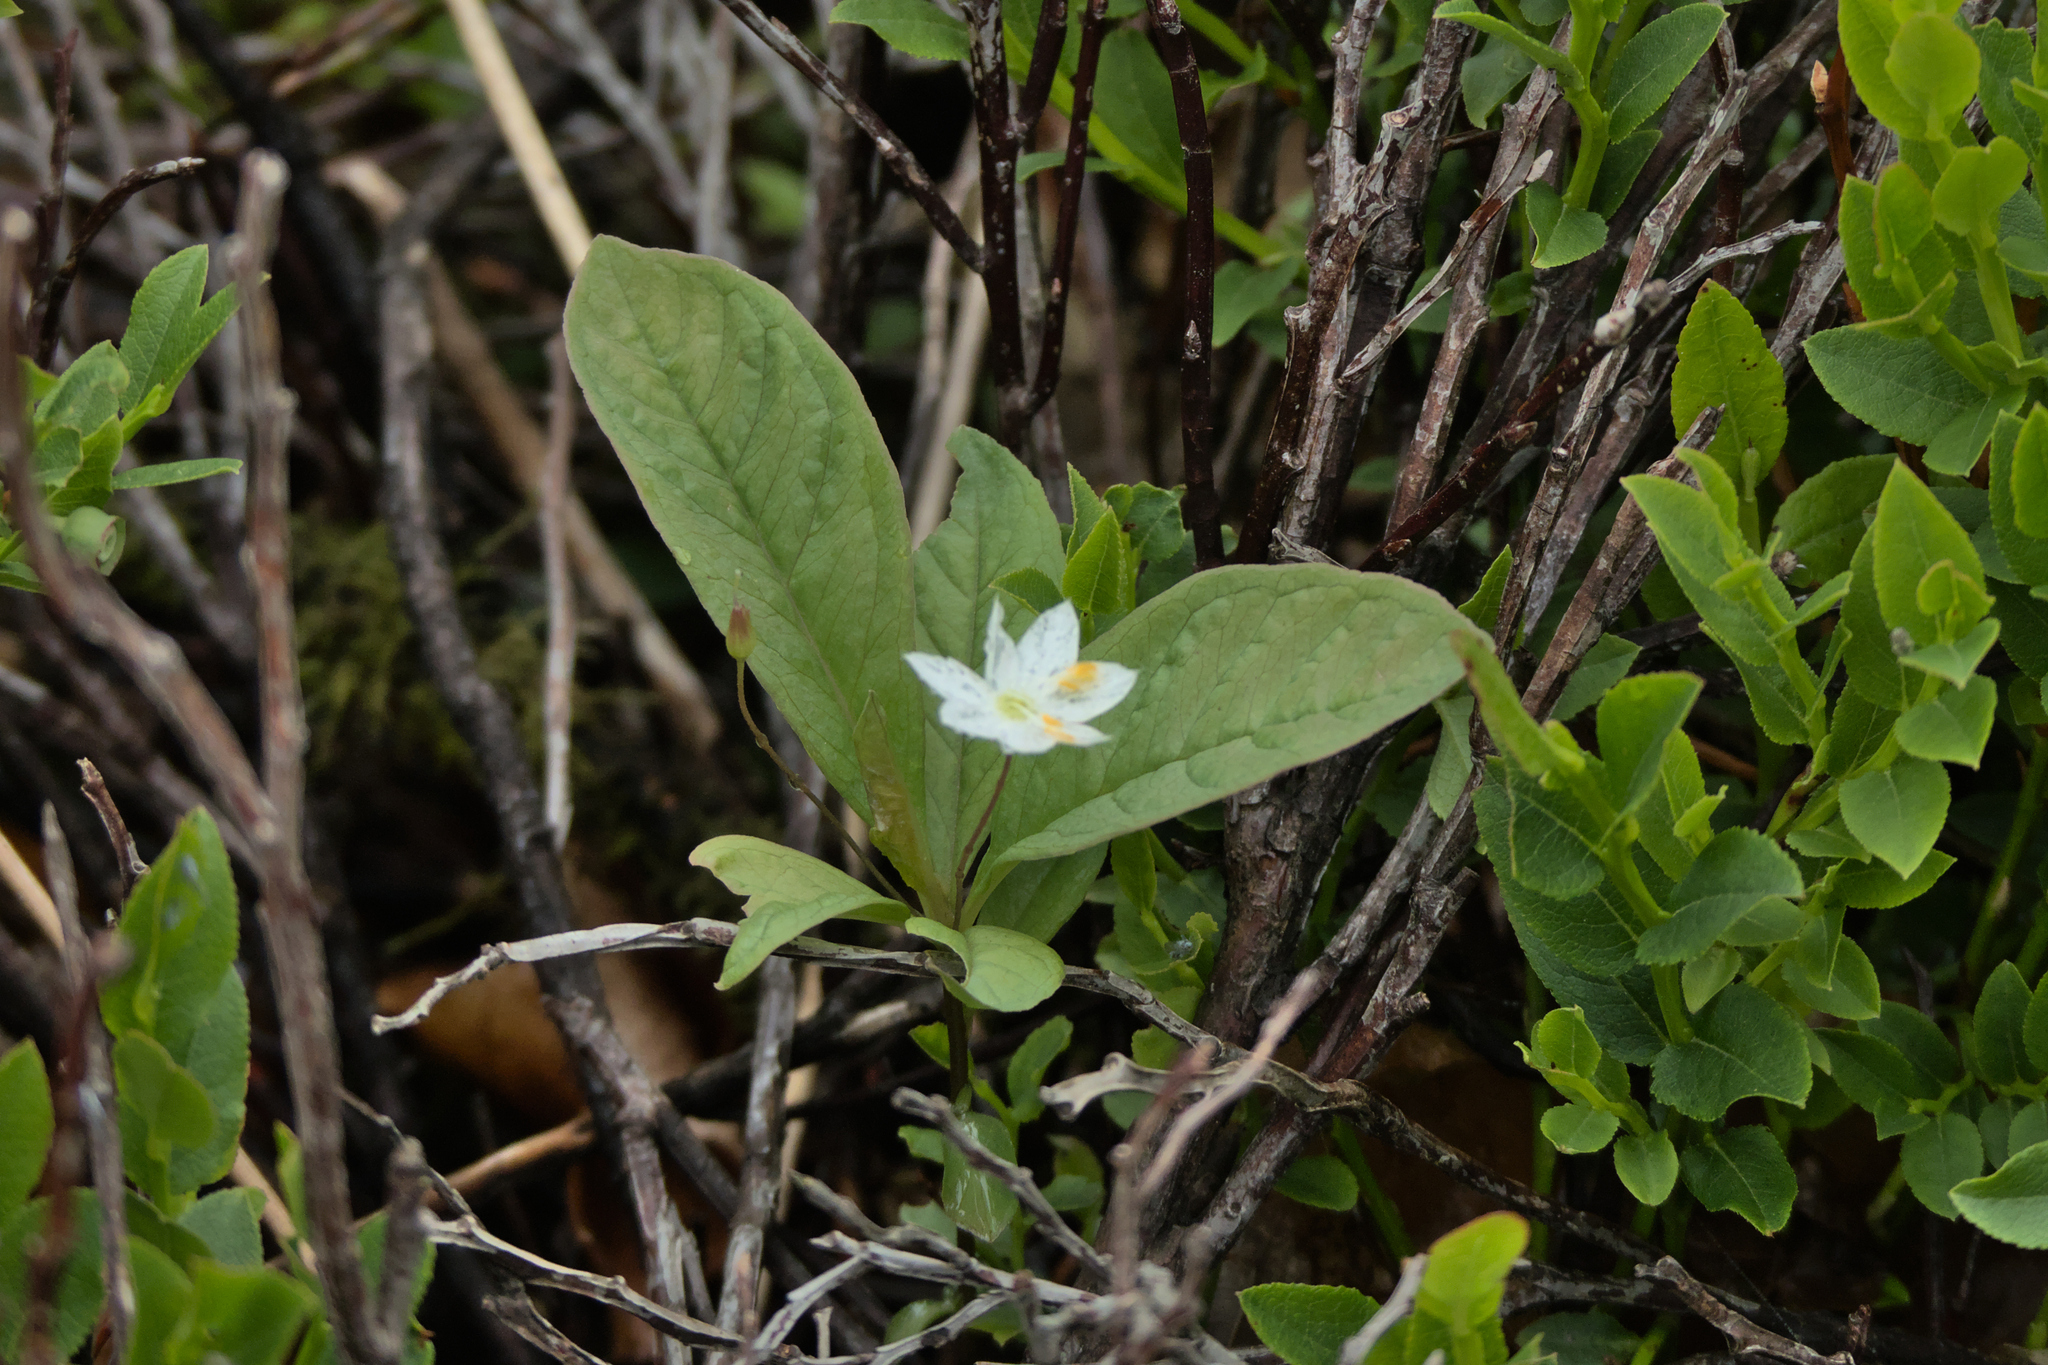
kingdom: Plantae
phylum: Tracheophyta
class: Magnoliopsida
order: Ericales
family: Primulaceae
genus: Lysimachia
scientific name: Lysimachia europaea
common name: Arctic starflower
